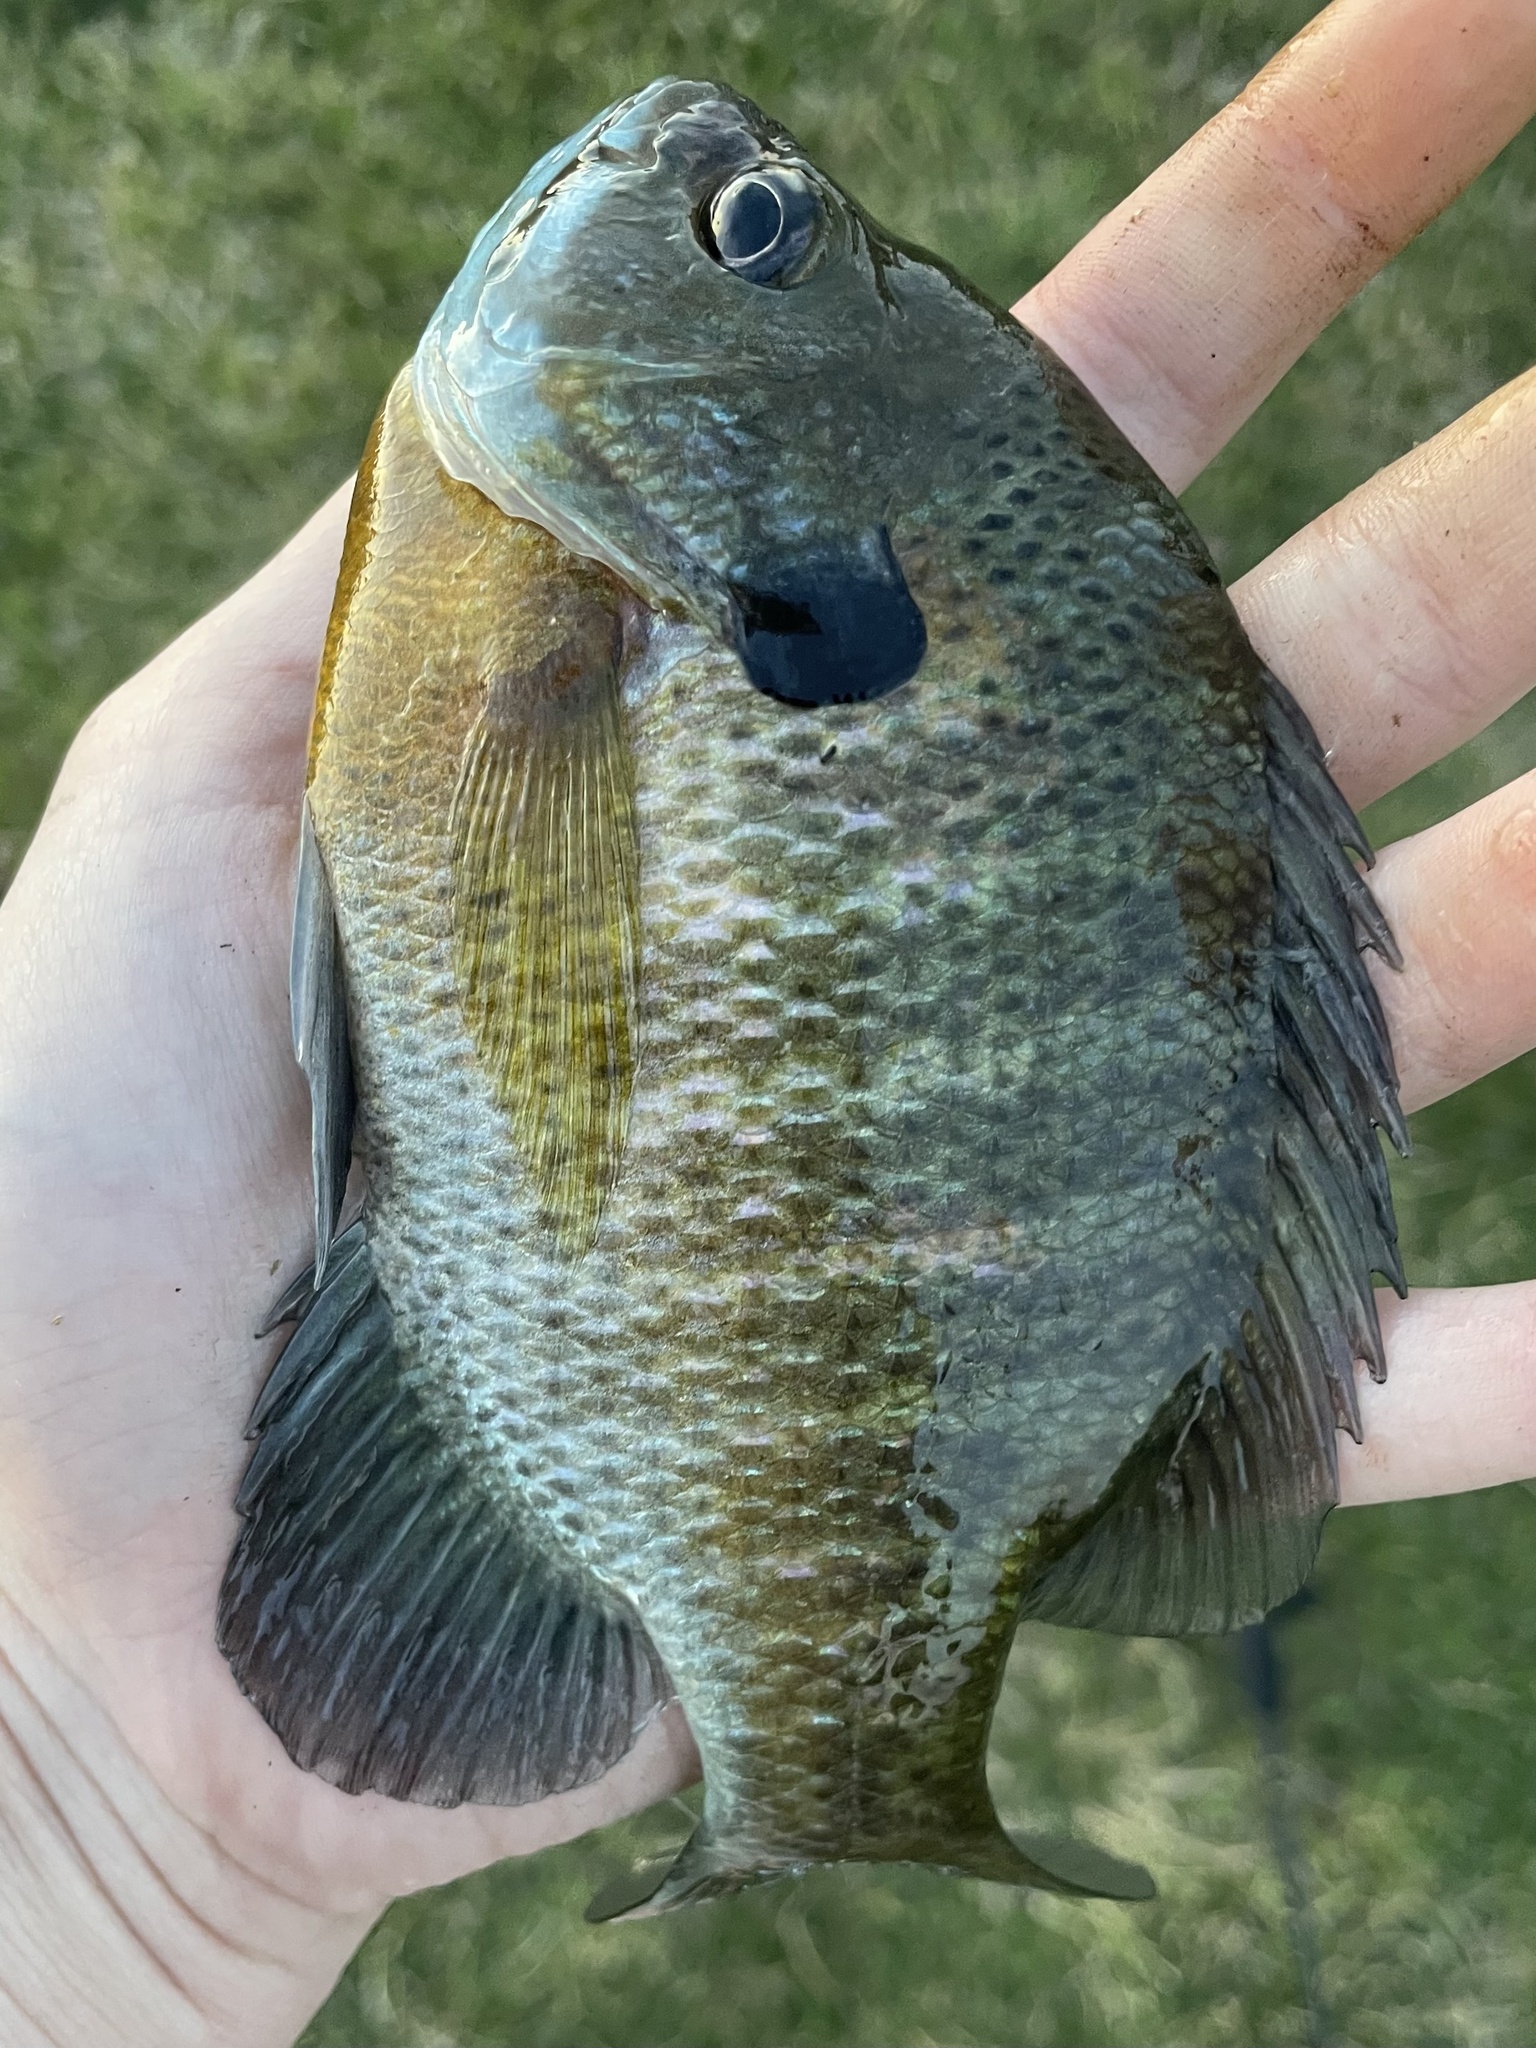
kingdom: Animalia
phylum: Chordata
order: Perciformes
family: Centrarchidae
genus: Lepomis
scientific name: Lepomis macrochirus
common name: Bluegill
